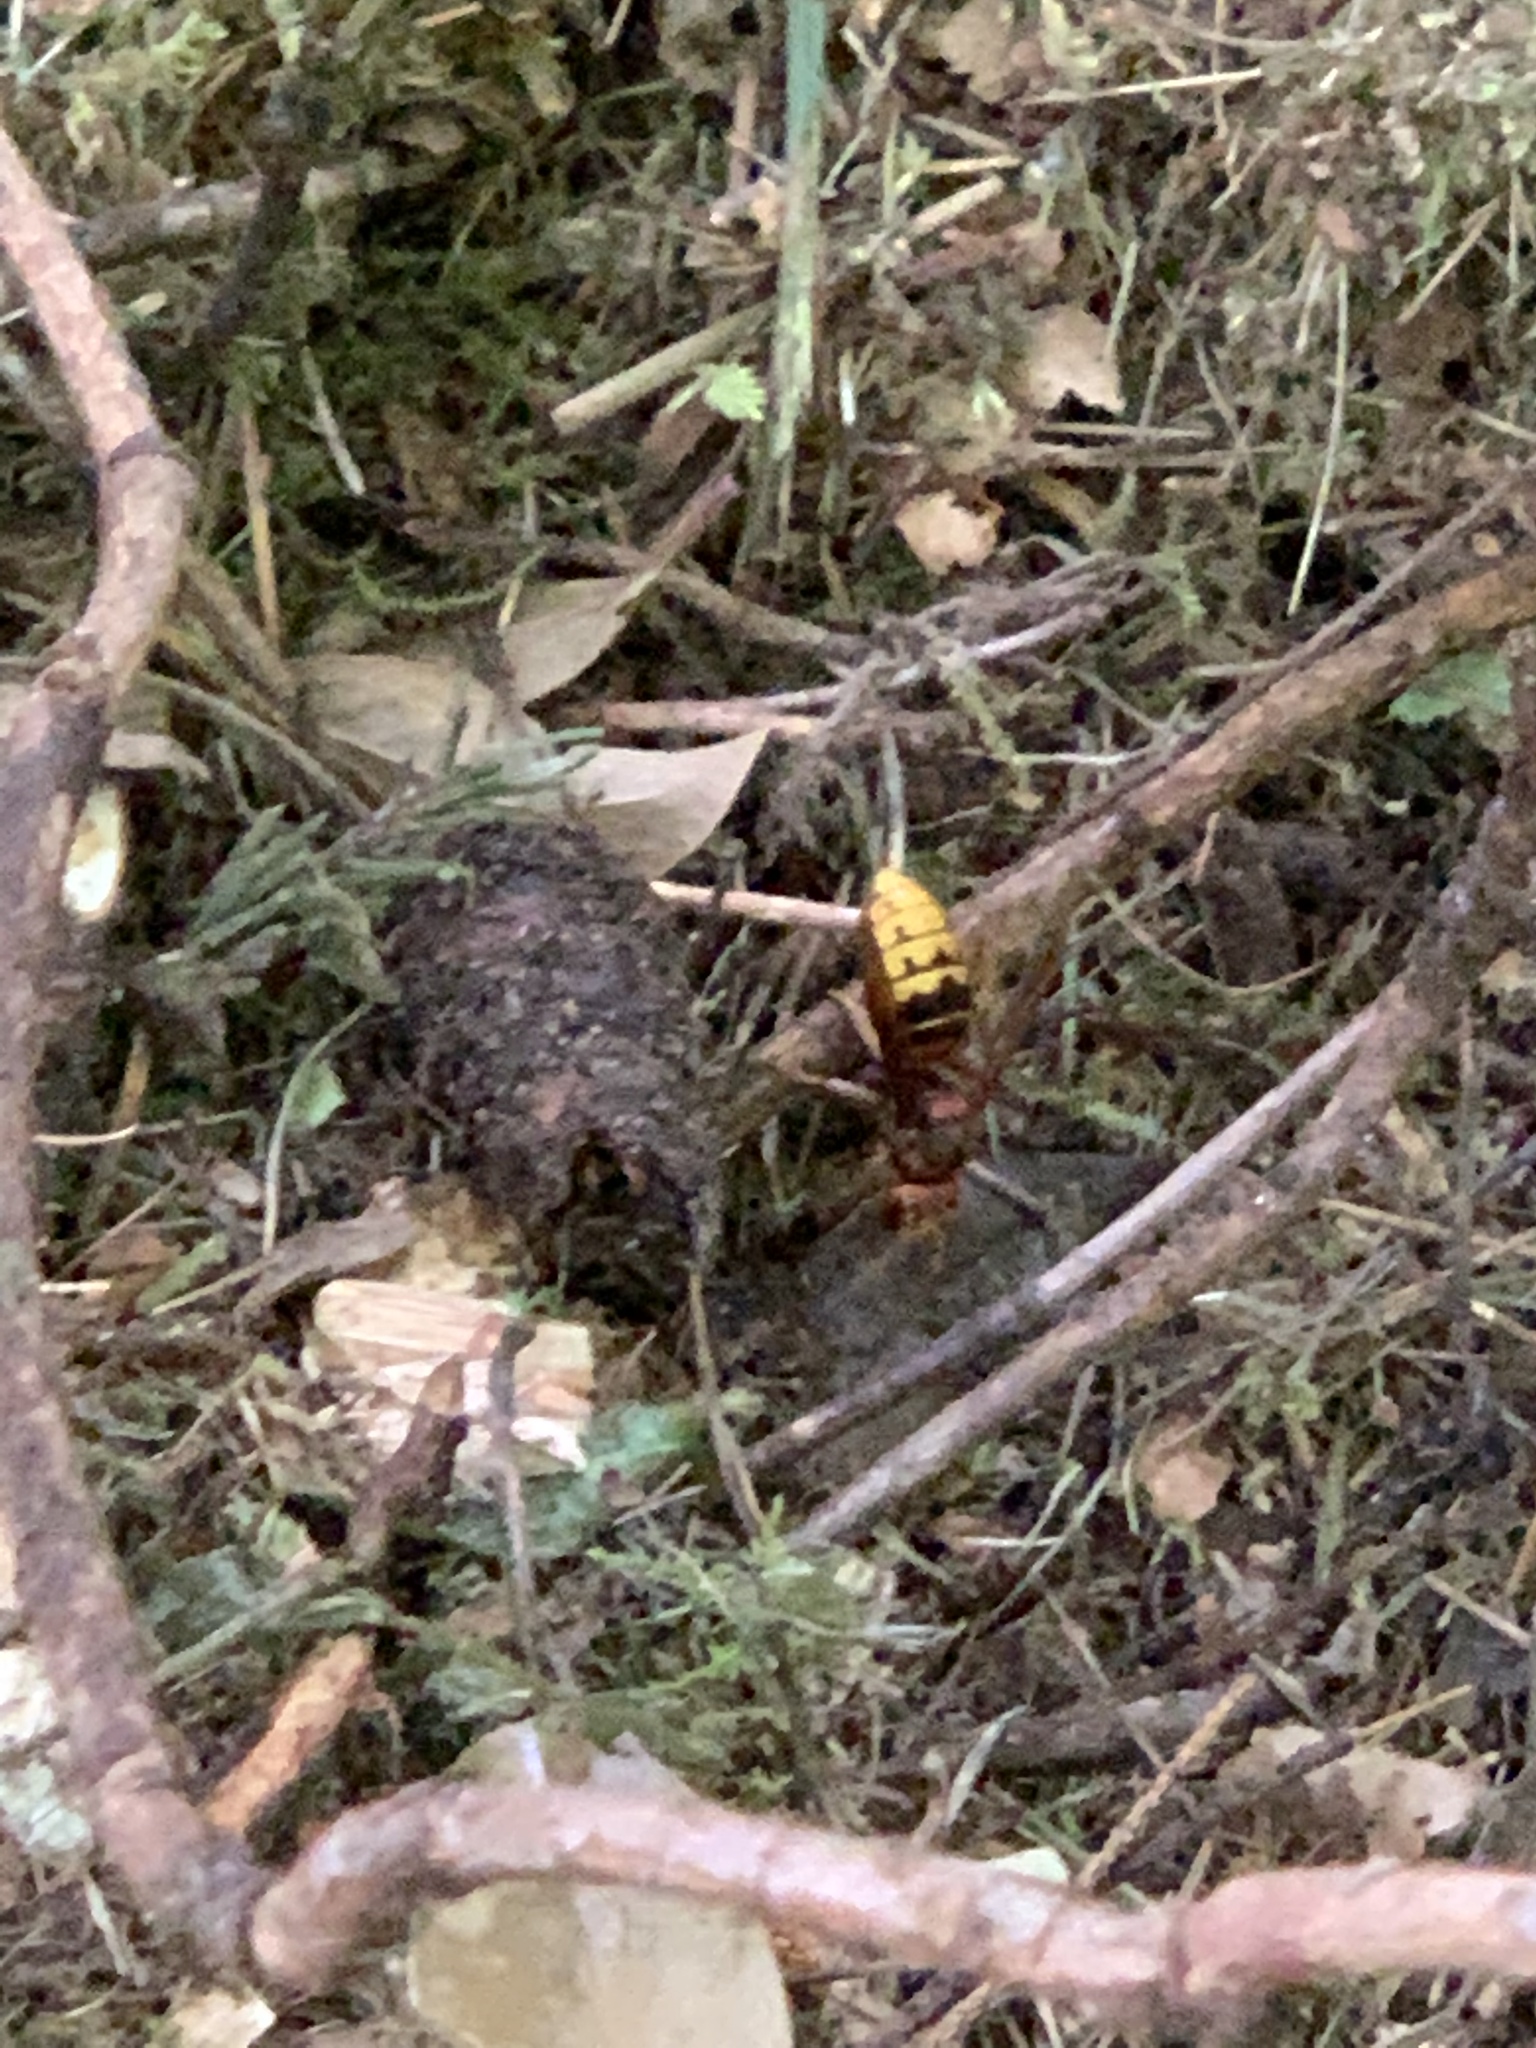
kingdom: Animalia
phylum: Arthropoda
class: Insecta
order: Hymenoptera
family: Vespidae
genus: Vespa
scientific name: Vespa crabro
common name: Hornet
